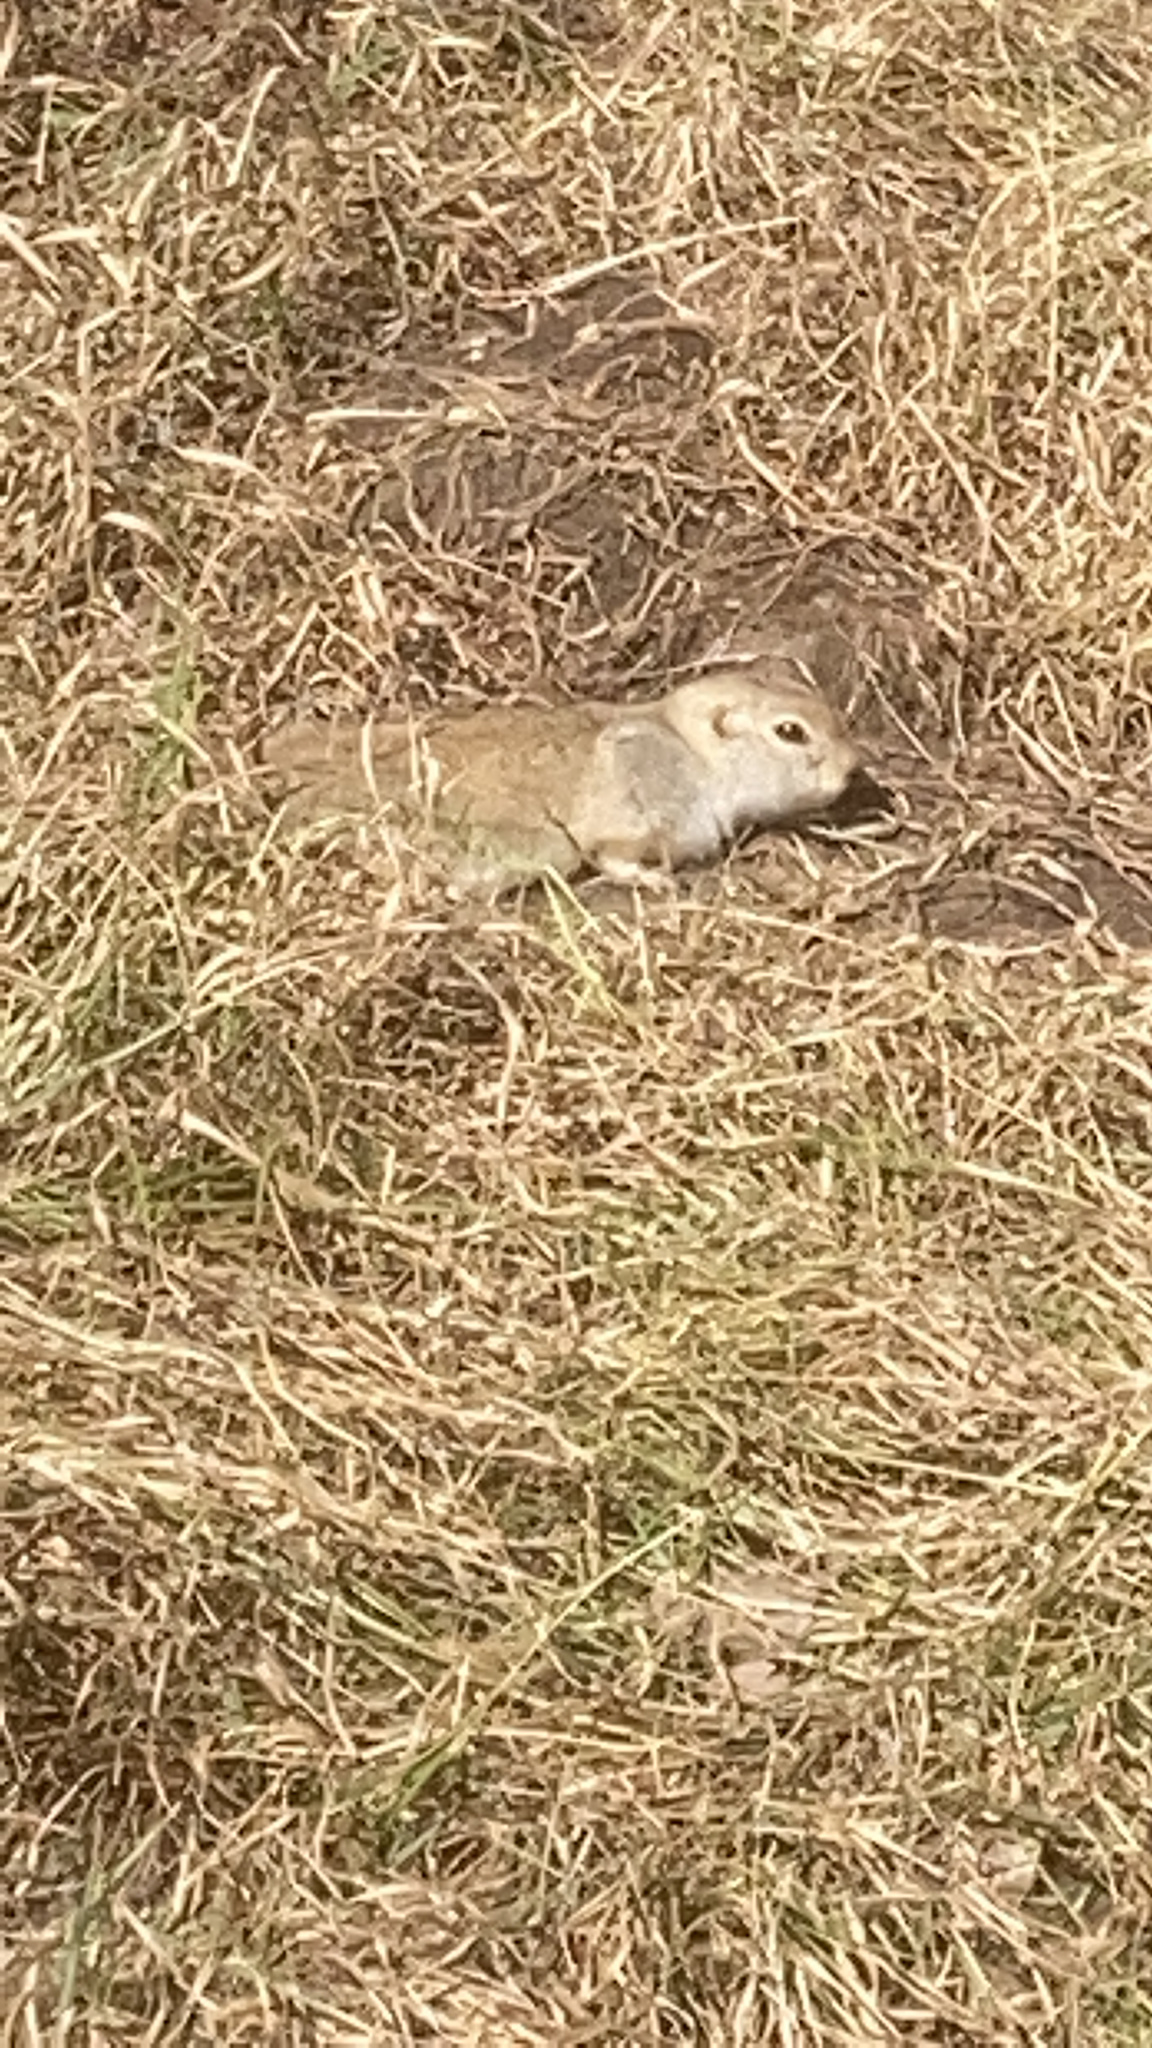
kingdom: Animalia
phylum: Chordata
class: Mammalia
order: Rodentia
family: Sciuridae
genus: Urocitellus
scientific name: Urocitellus richardsonii
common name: Richardson's ground squirrel
